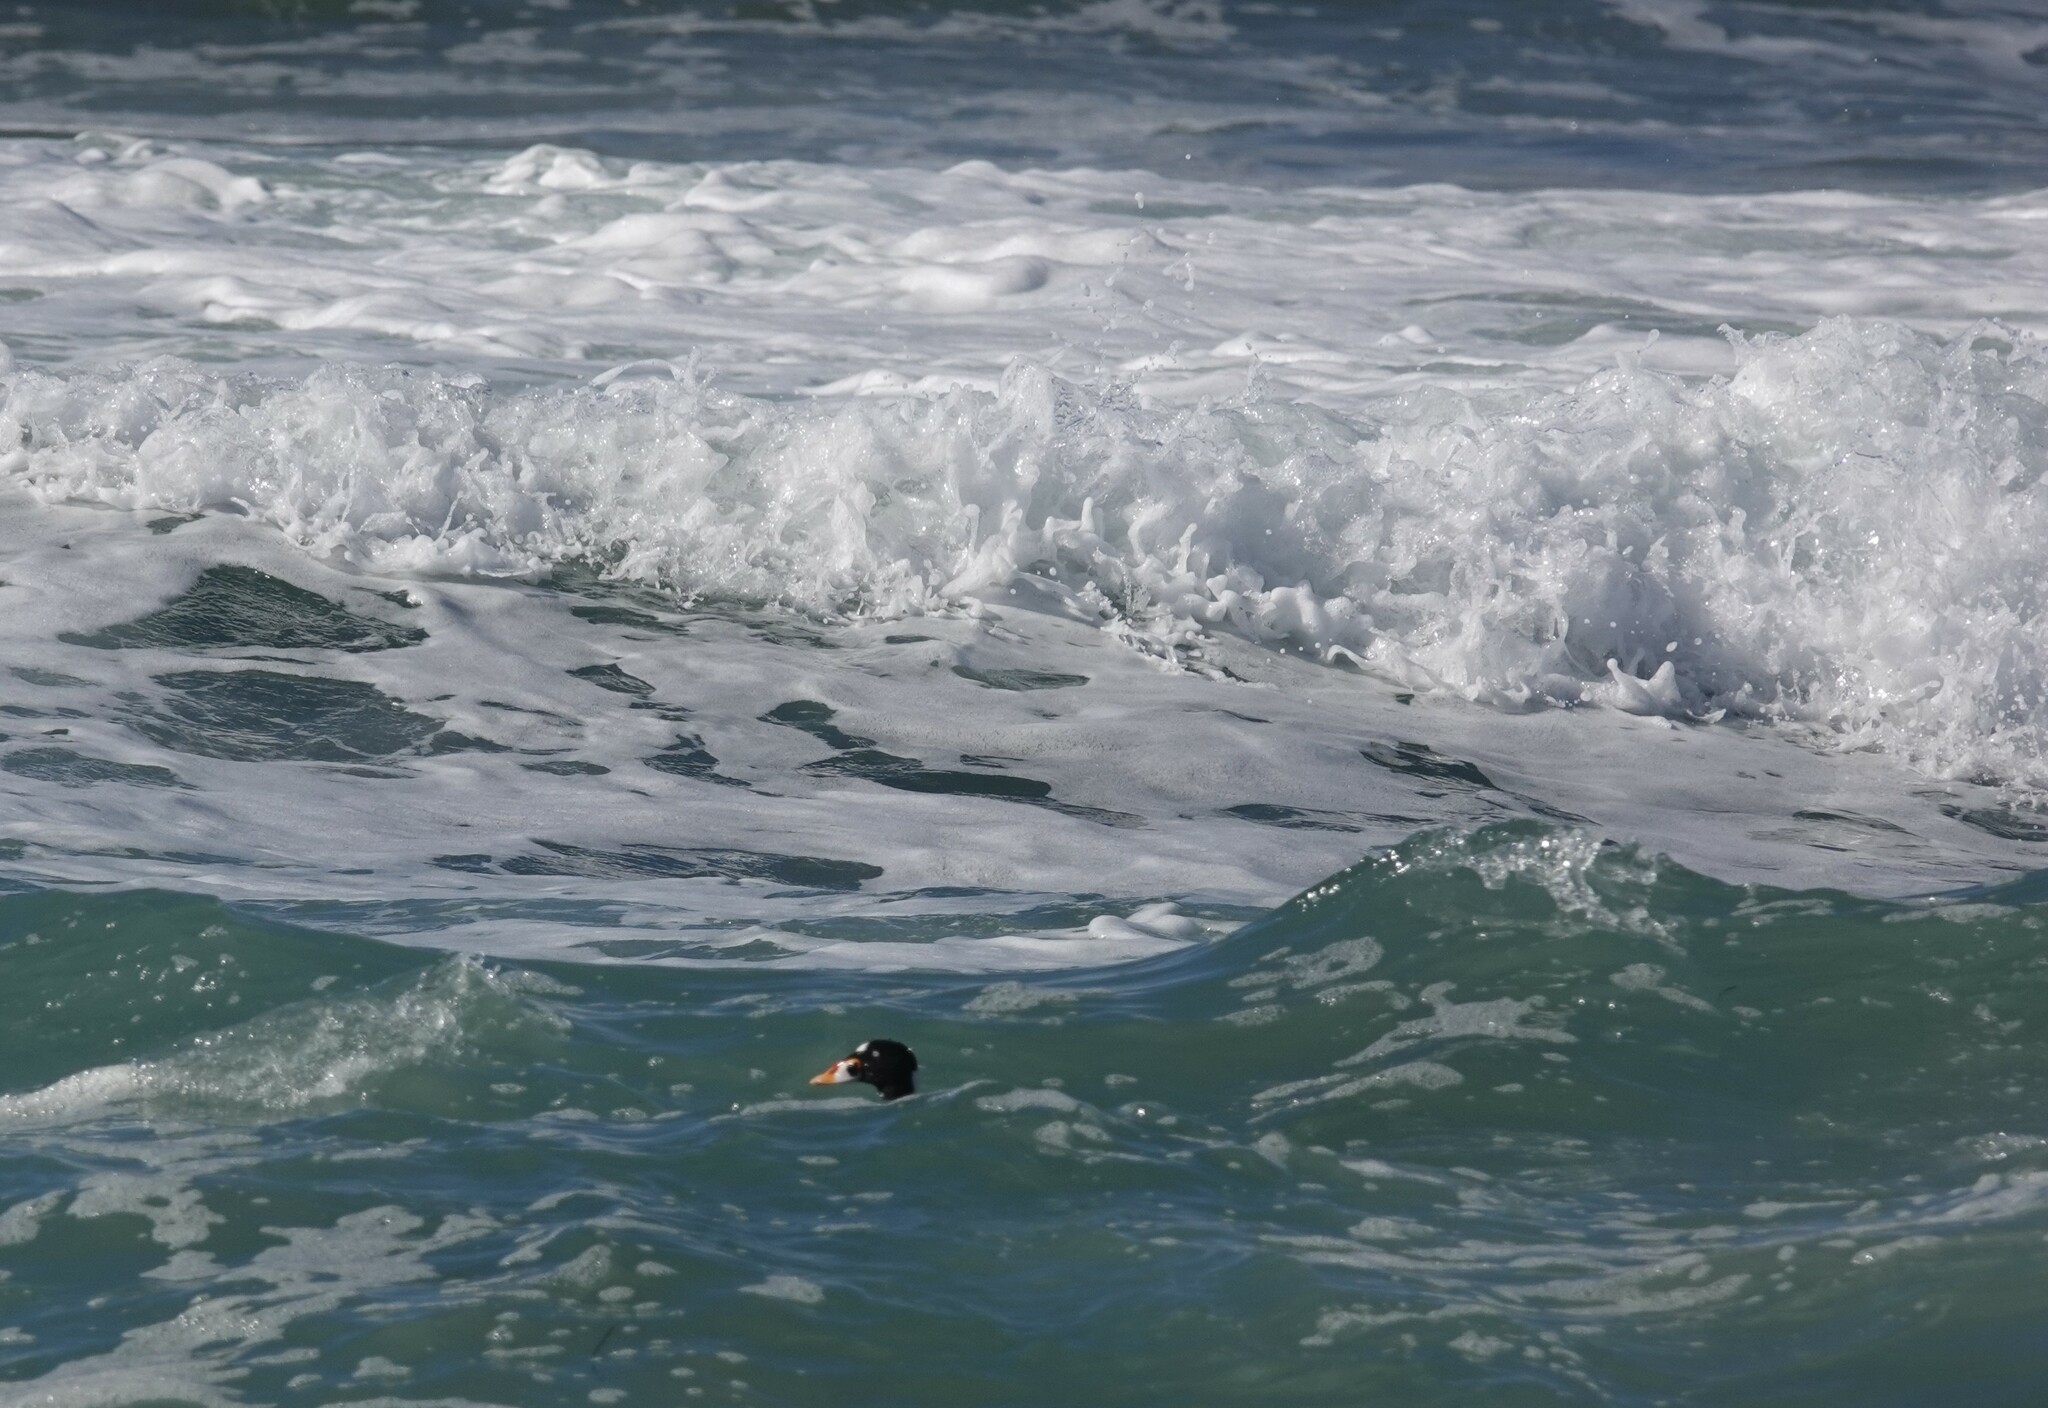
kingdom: Animalia
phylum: Chordata
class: Aves
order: Anseriformes
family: Anatidae
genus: Melanitta
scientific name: Melanitta perspicillata
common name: Surf scoter
